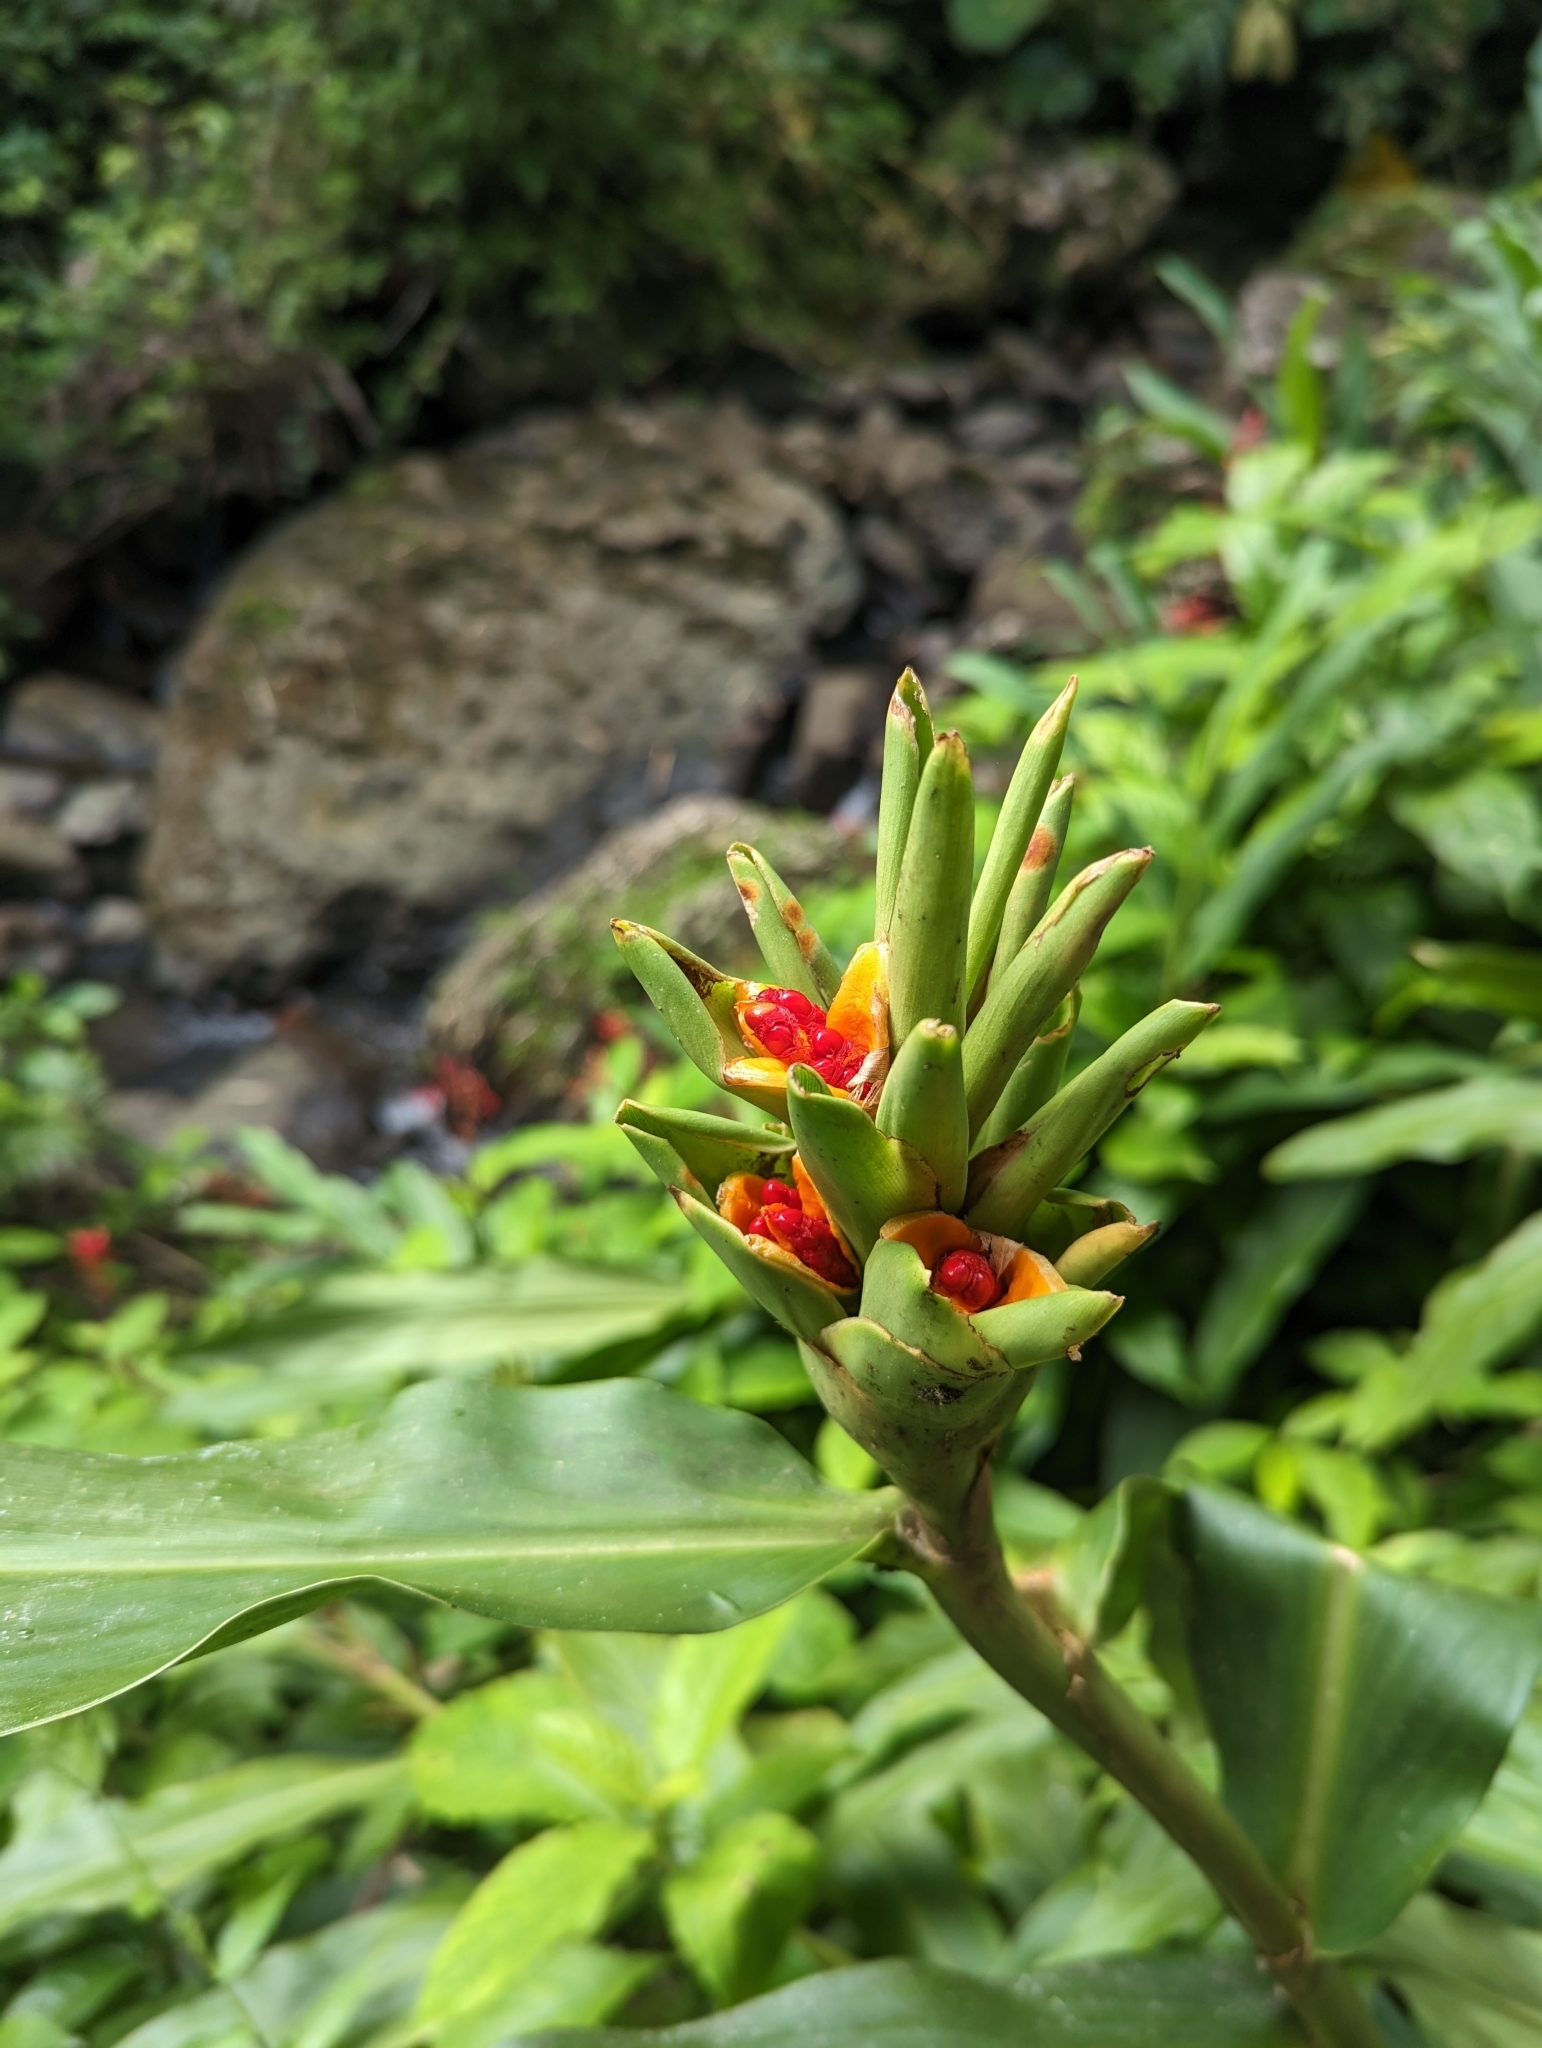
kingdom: Plantae
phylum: Tracheophyta
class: Liliopsida
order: Zingiberales
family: Zingiberaceae
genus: Hedychium
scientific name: Hedychium coronarium
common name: White garland-lily
